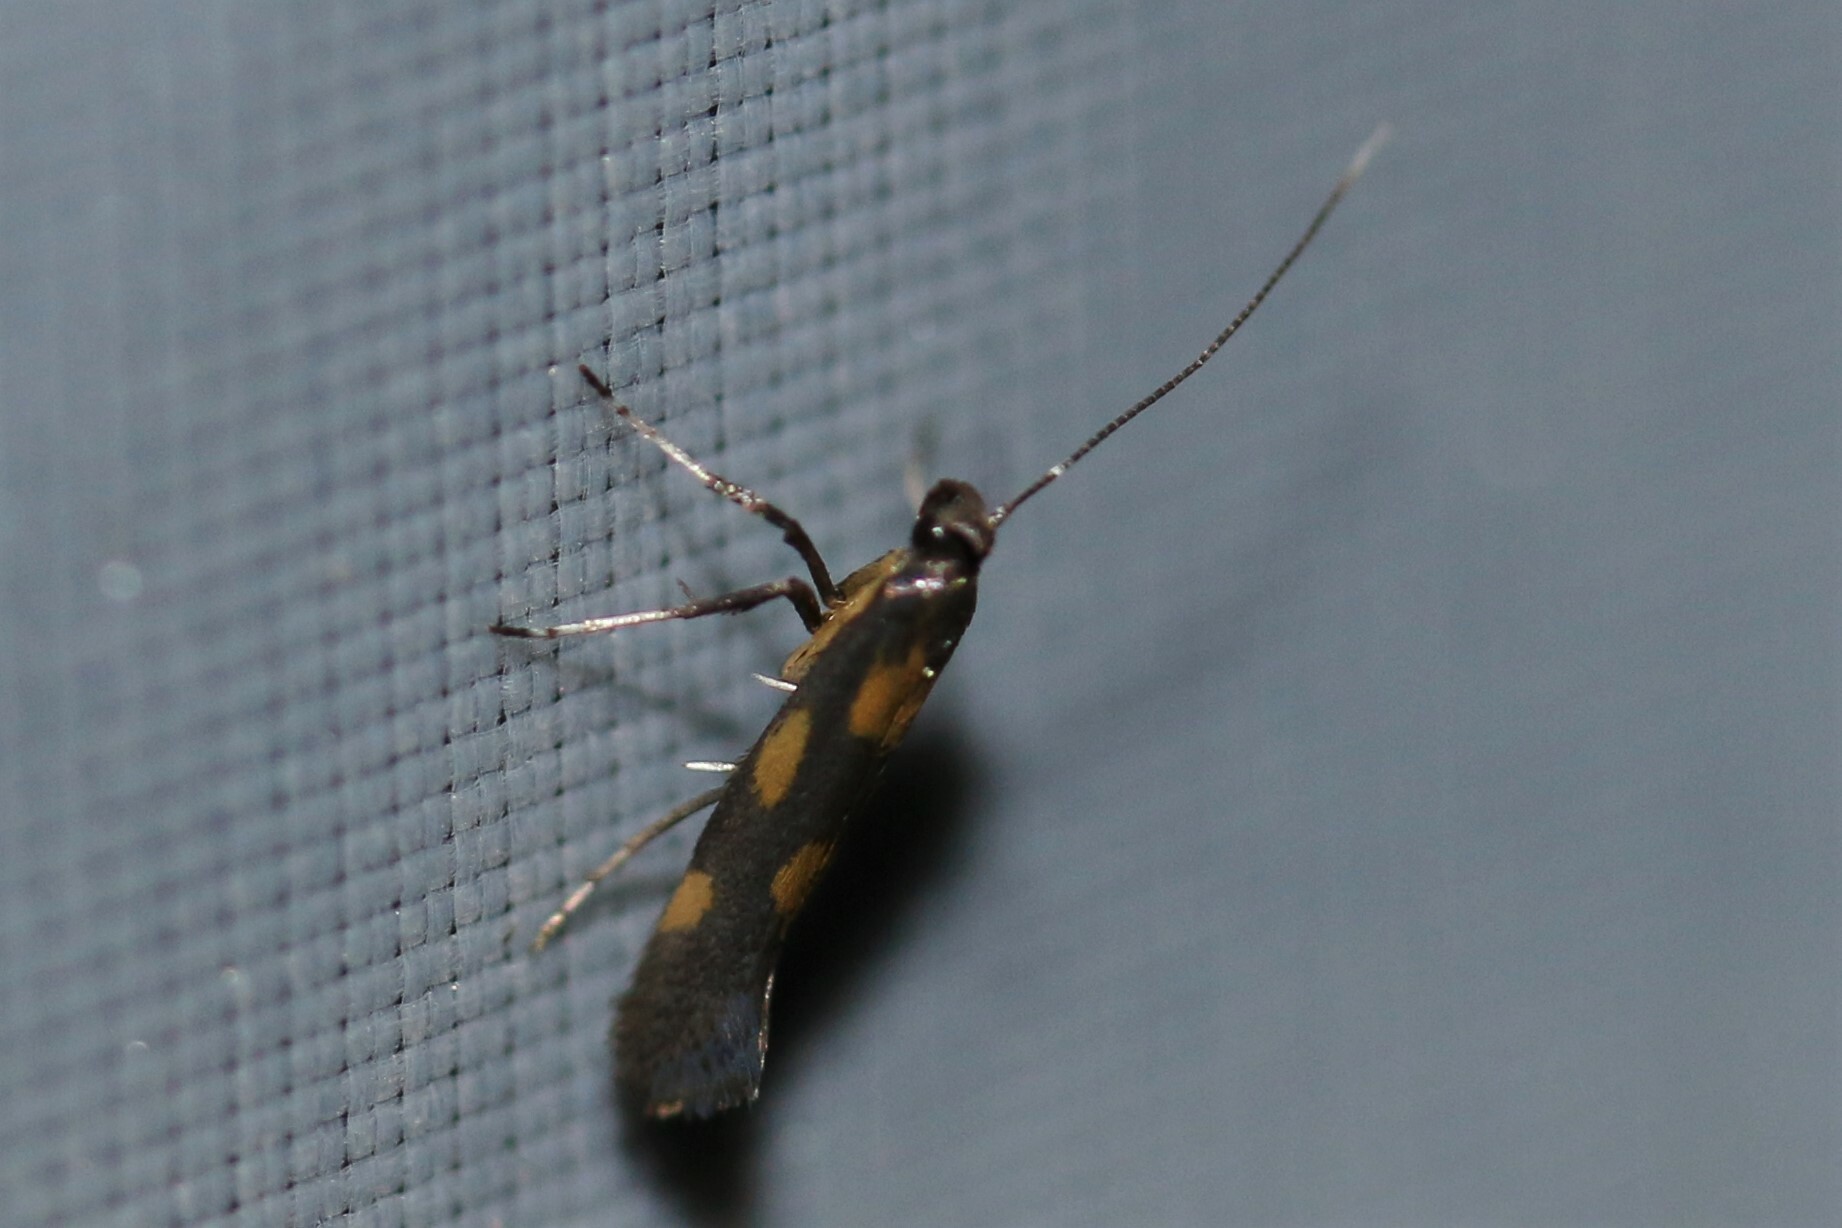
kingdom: Animalia
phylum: Arthropoda
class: Insecta
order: Lepidoptera
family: Gracillariidae
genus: Euspilapteryx
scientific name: Euspilapteryx auroguttella
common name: Gold-dot slender
